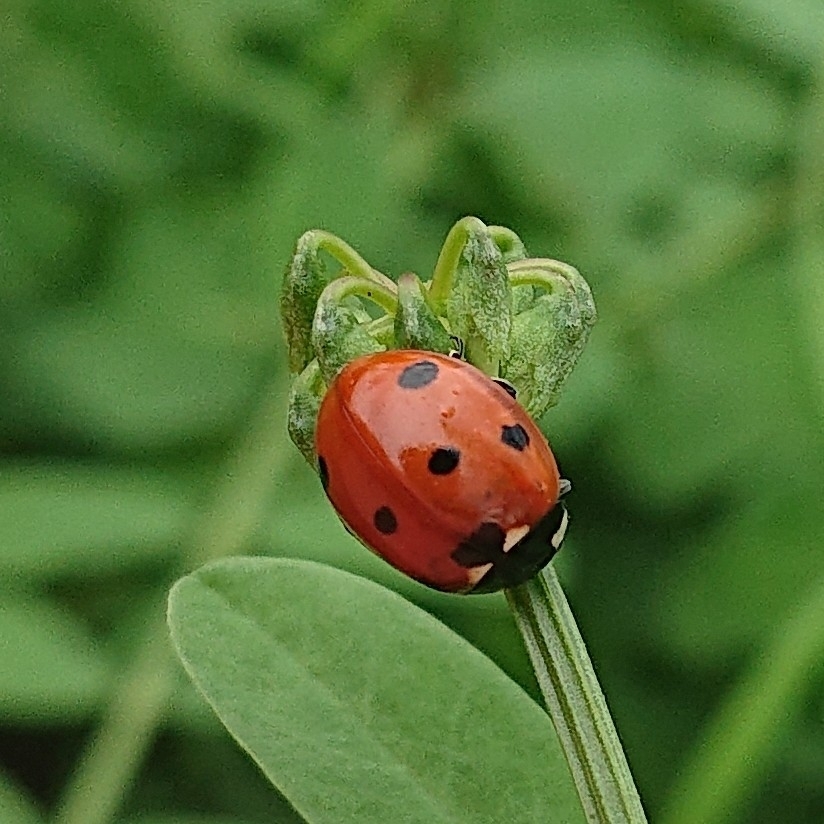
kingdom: Animalia
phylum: Arthropoda
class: Insecta
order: Coleoptera
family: Coccinellidae
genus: Coccinella
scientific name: Coccinella septempunctata
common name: Sevenspotted lady beetle
